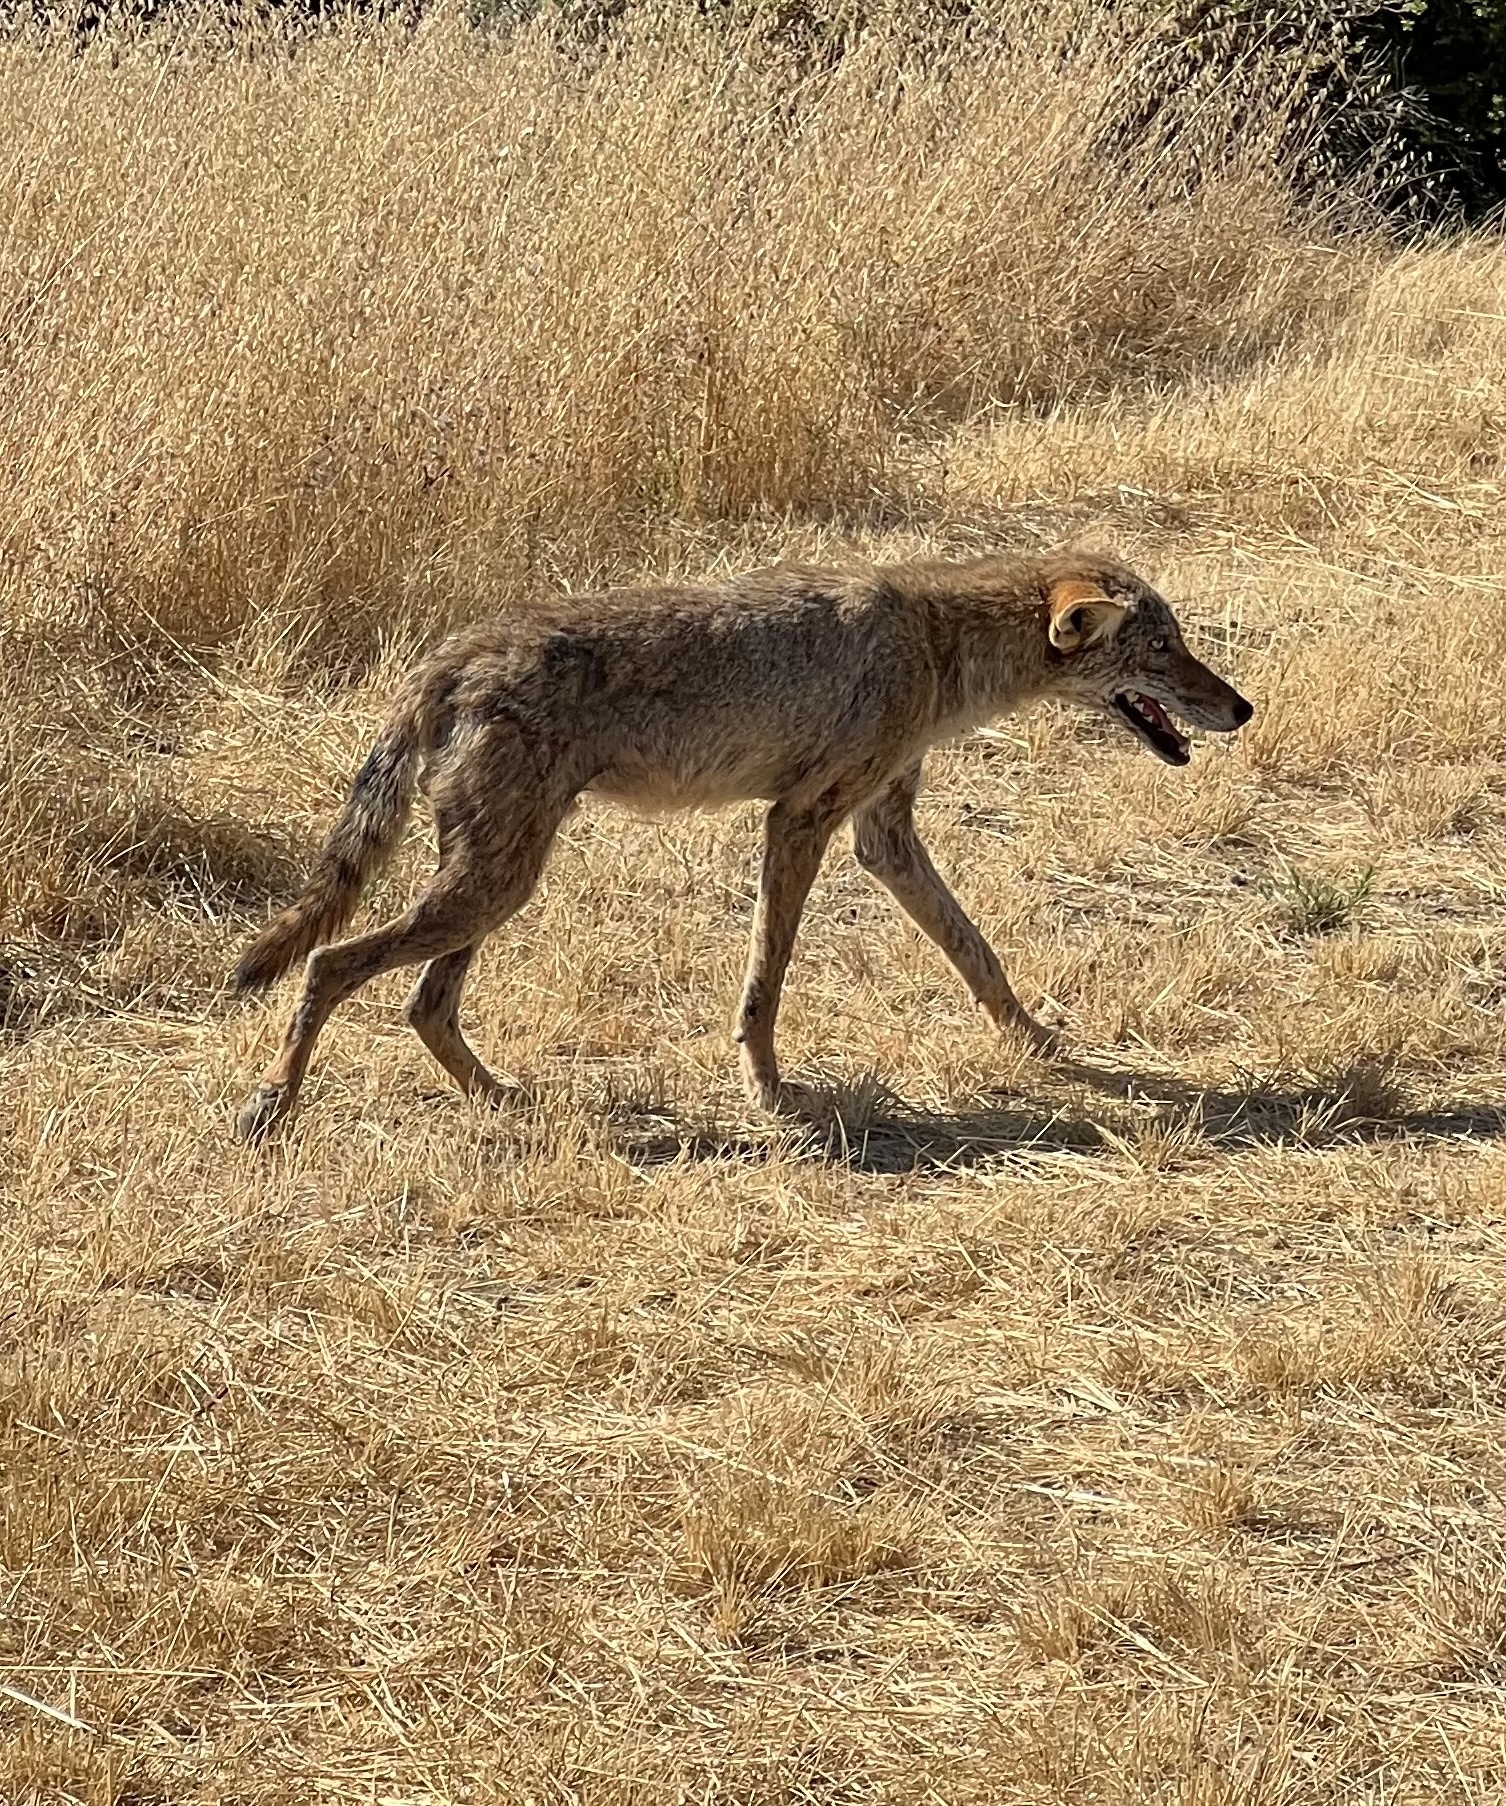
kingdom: Animalia
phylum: Chordata
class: Mammalia
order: Carnivora
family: Canidae
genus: Canis
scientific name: Canis latrans
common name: Coyote
